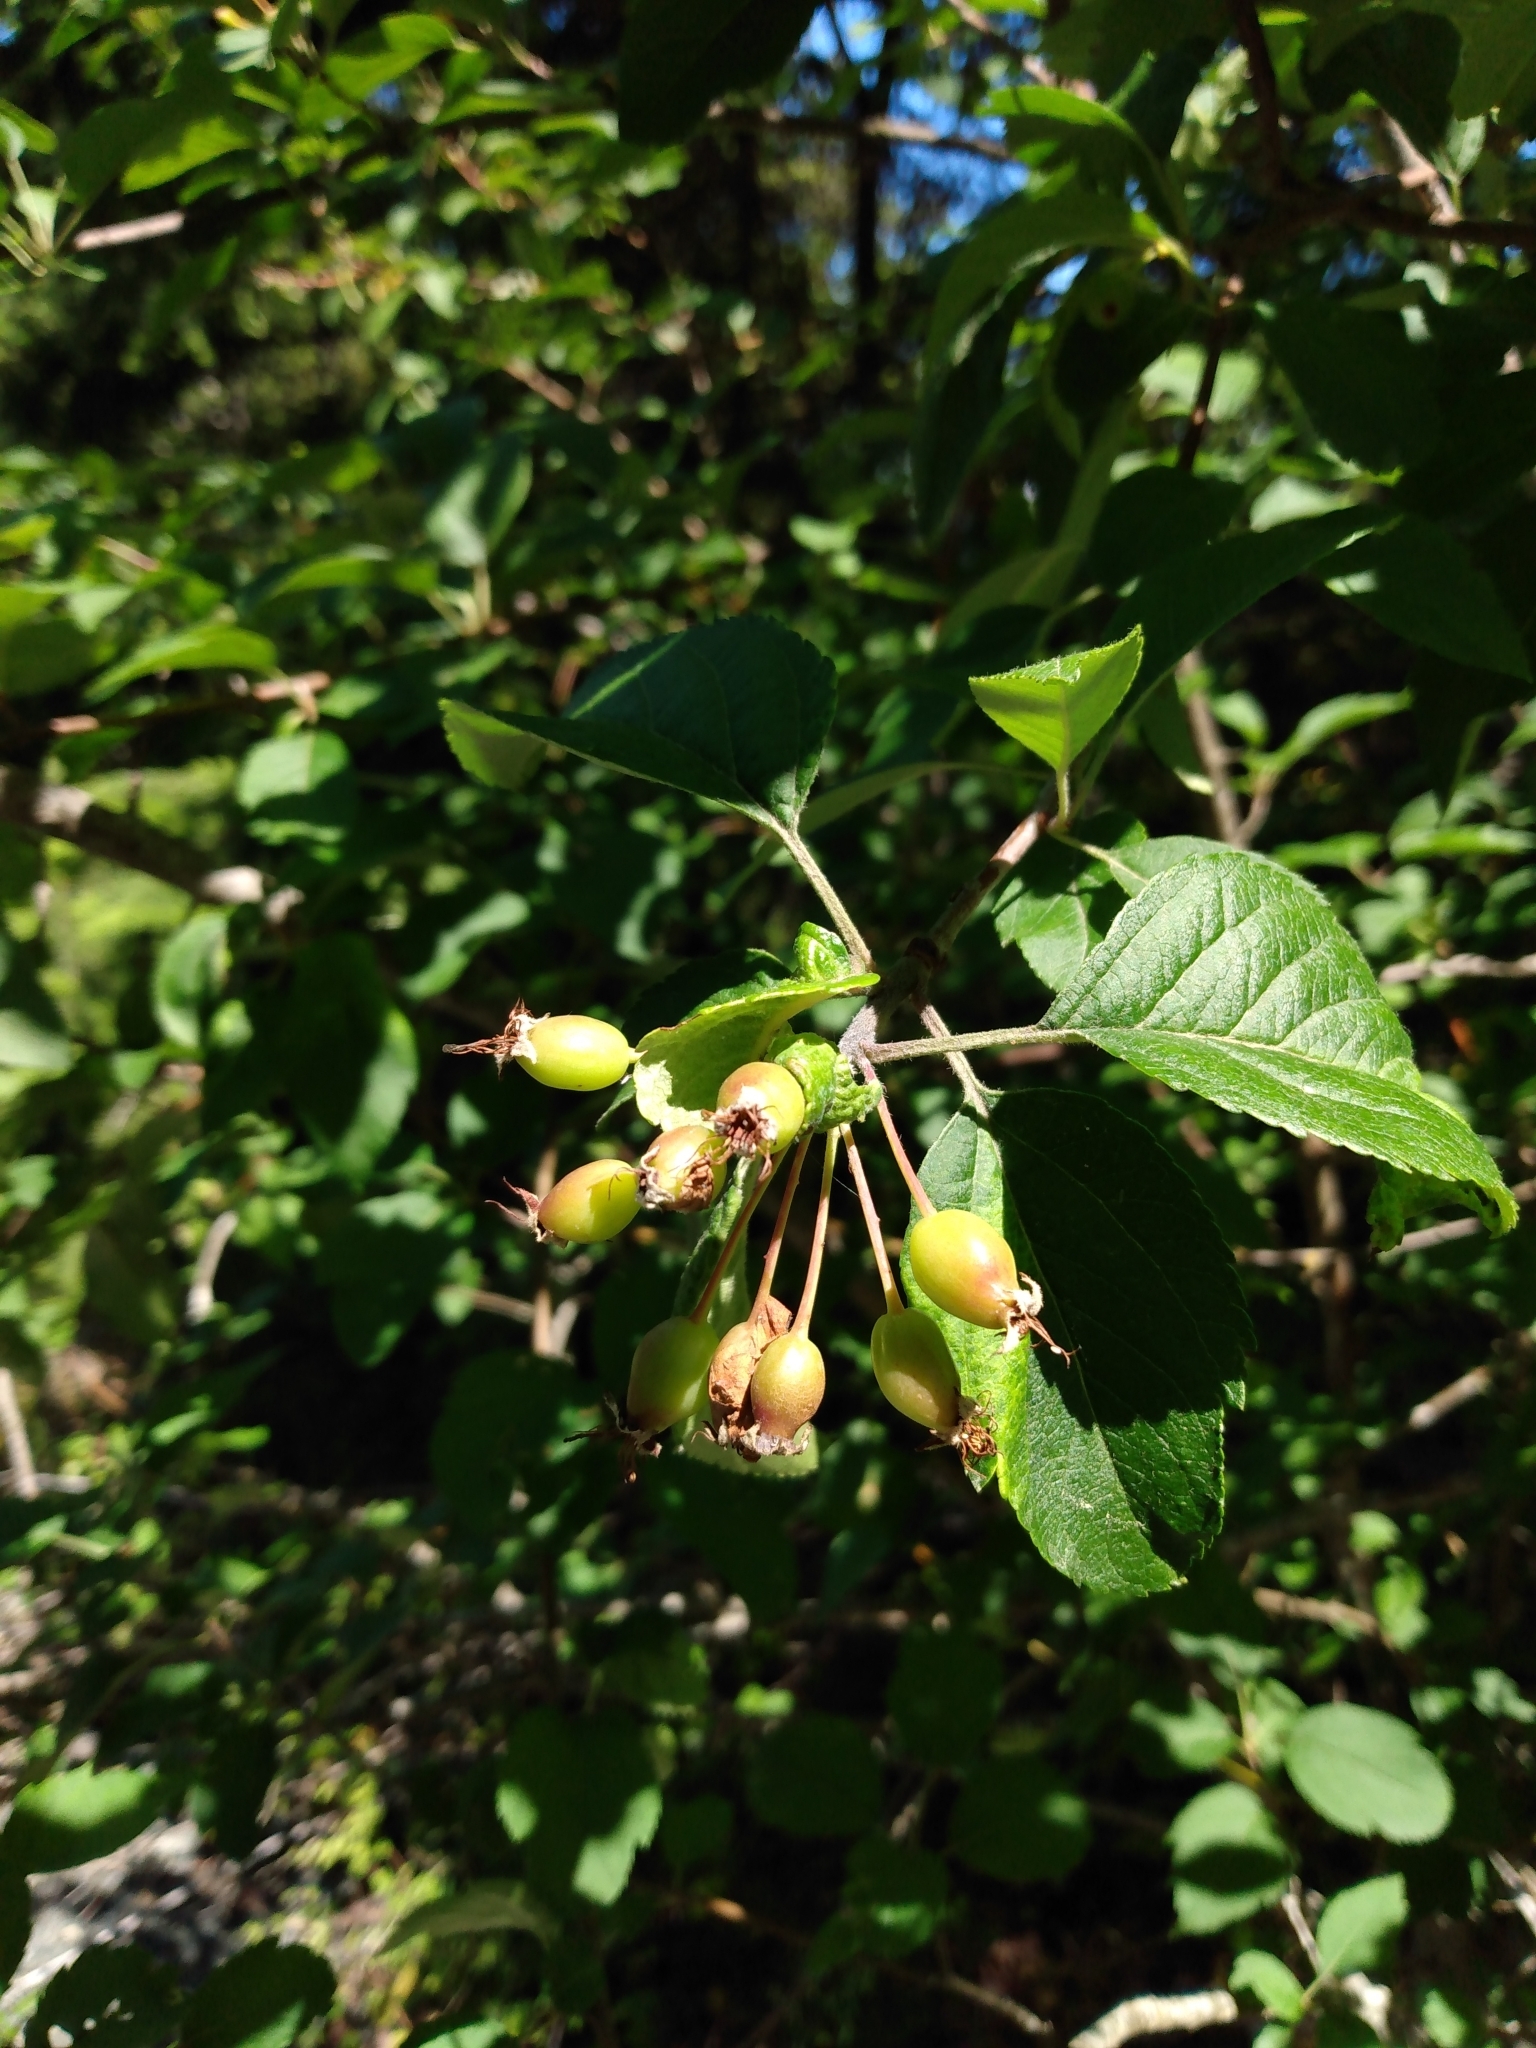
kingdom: Plantae
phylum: Tracheophyta
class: Magnoliopsida
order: Rosales
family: Rosaceae
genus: Malus
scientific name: Malus fusca
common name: Oregon crab apple
